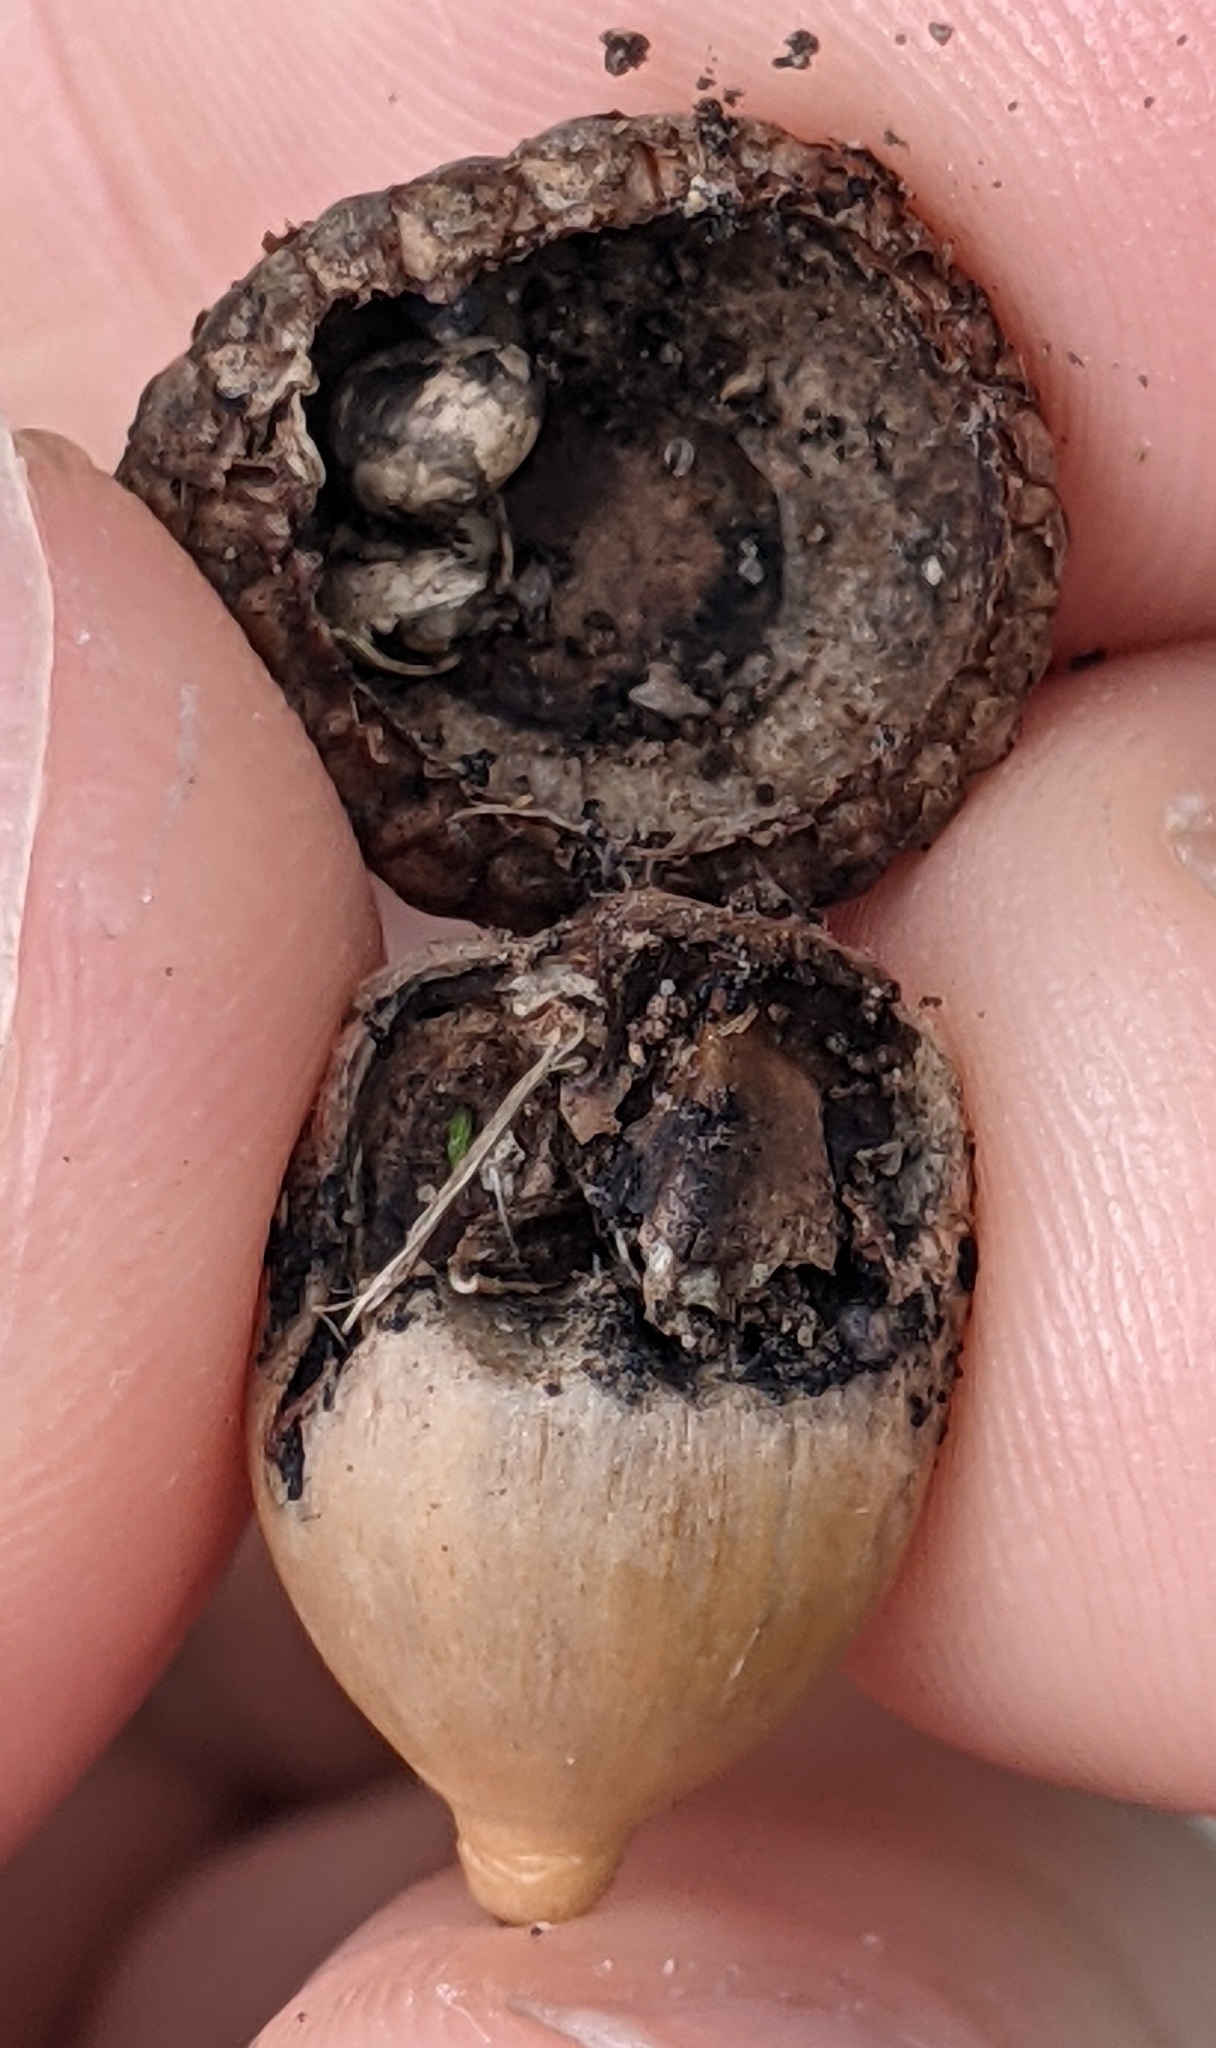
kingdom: Animalia
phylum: Arthropoda
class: Insecta
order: Hymenoptera
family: Cynipidae
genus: Callirhytis
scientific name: Callirhytis
